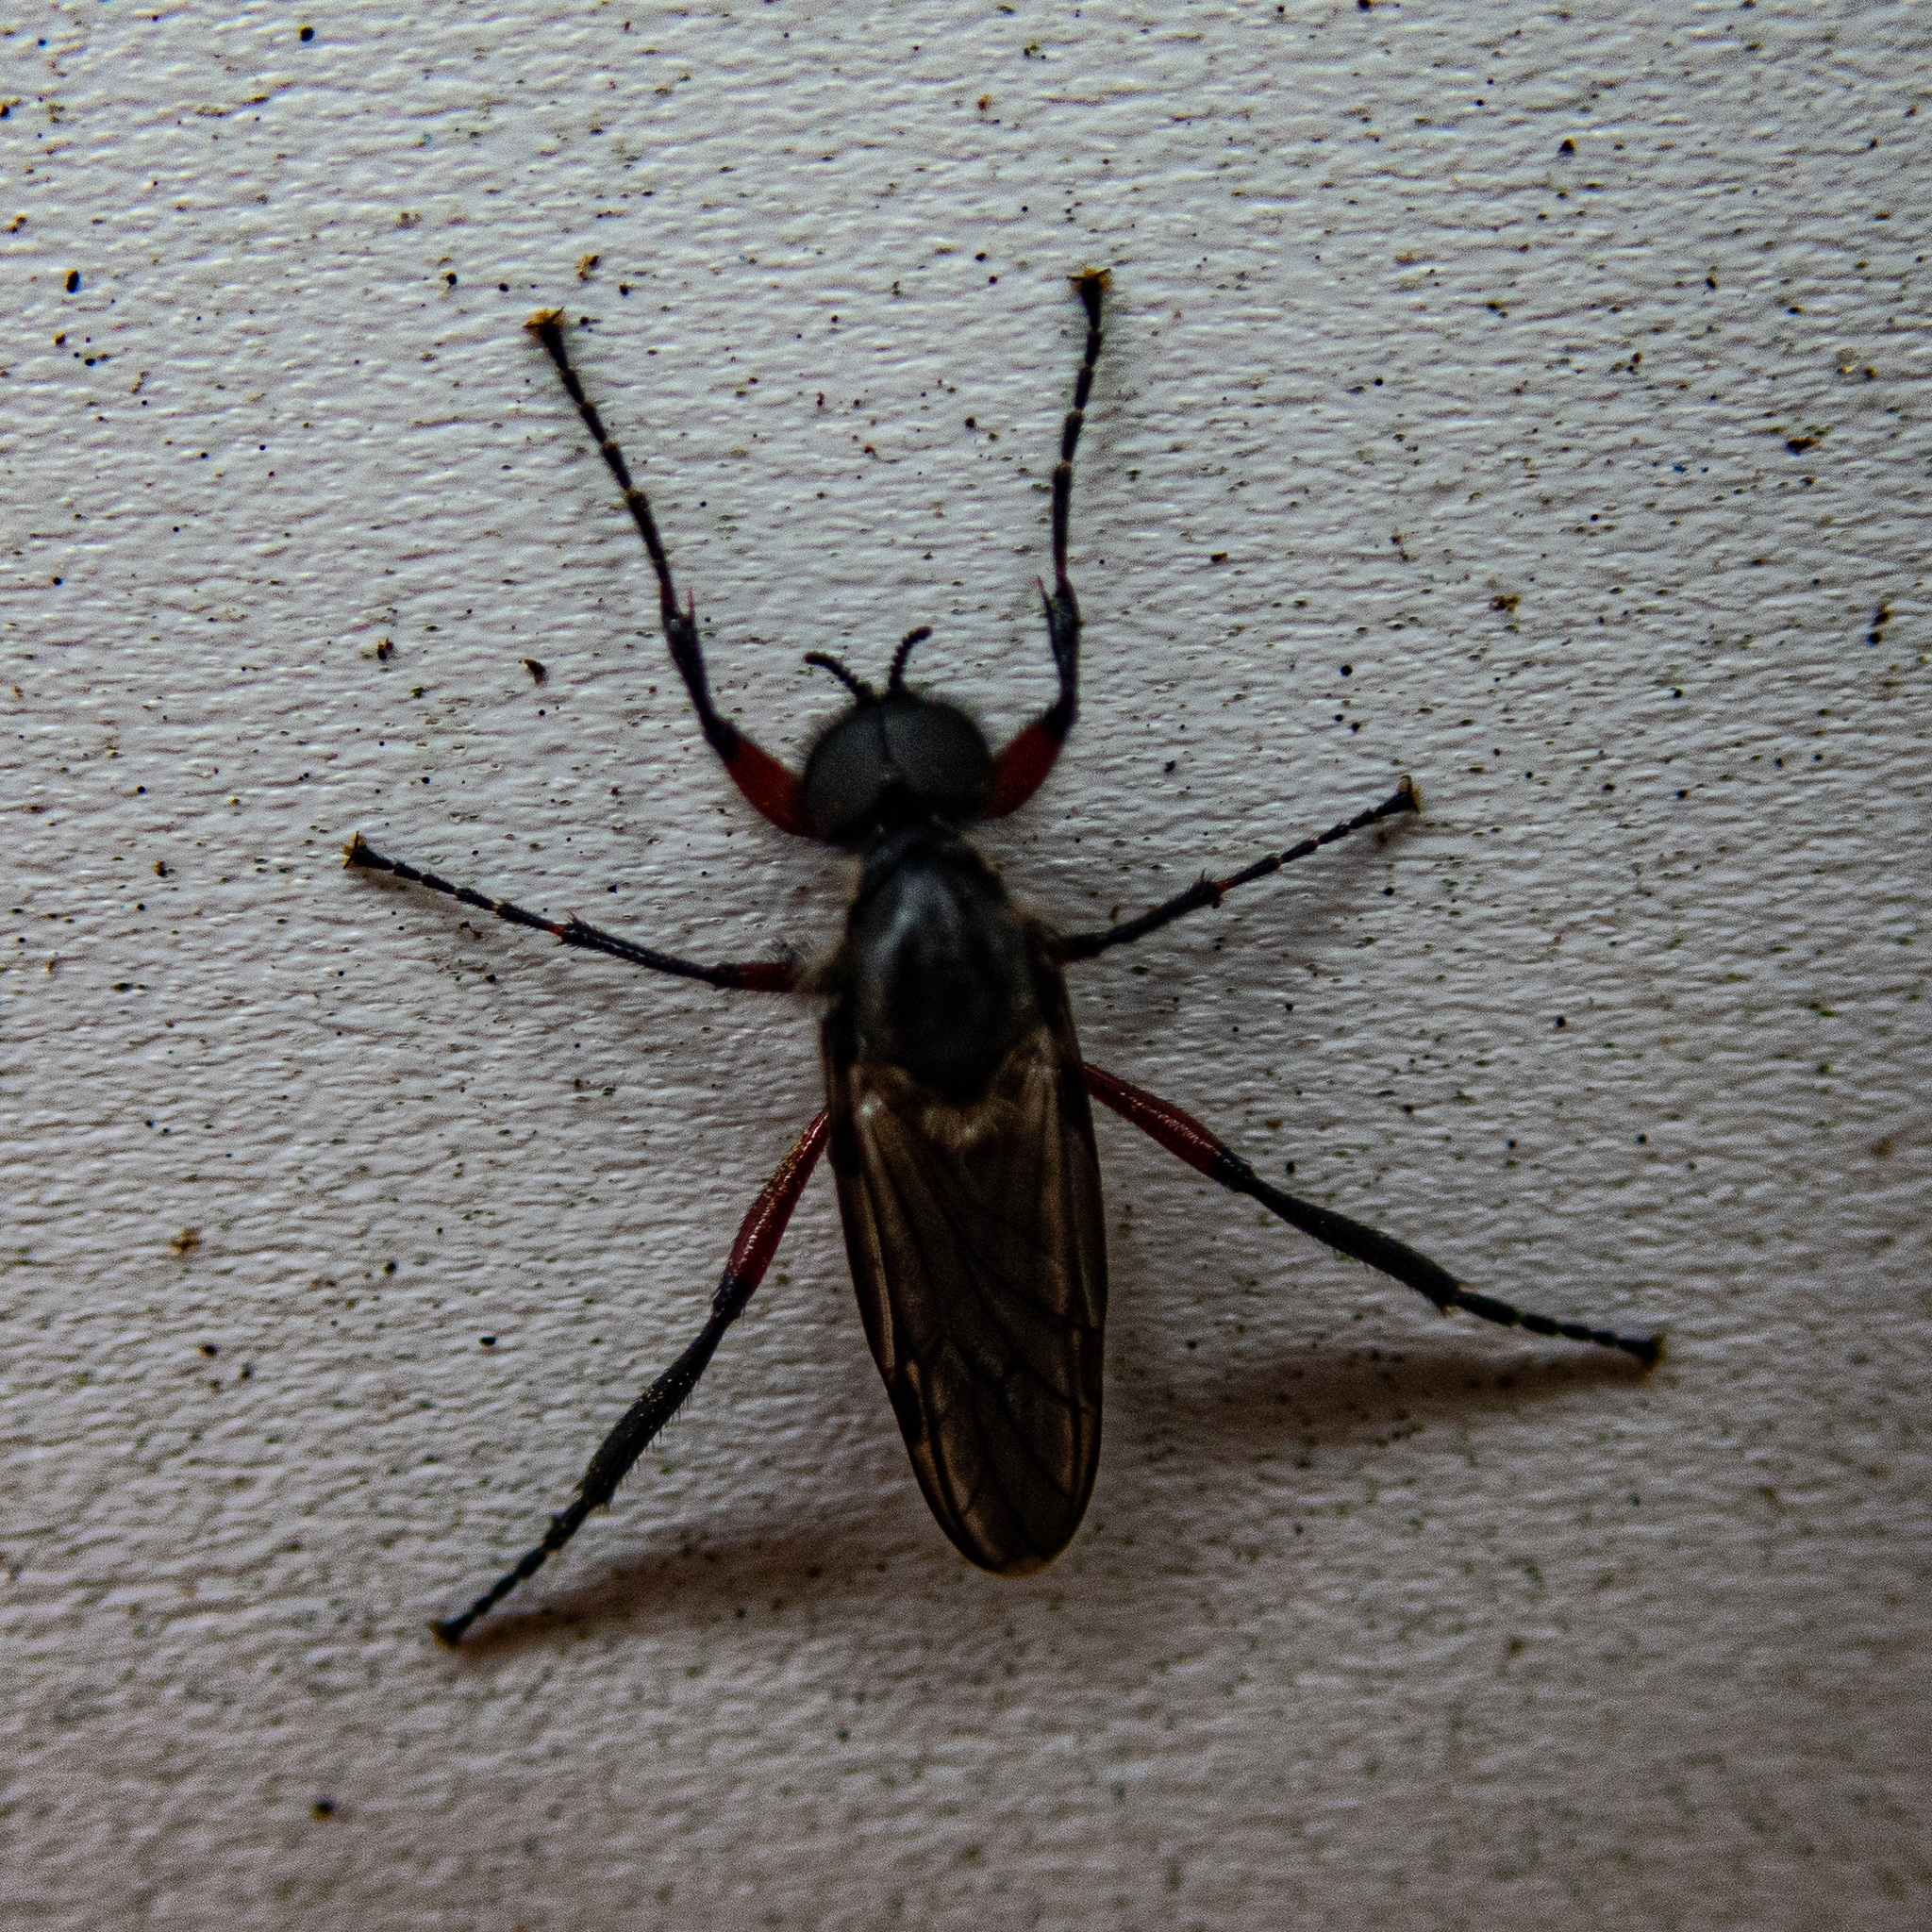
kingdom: Animalia
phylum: Arthropoda
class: Insecta
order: Diptera
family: Bibionidae
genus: Bibio
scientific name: Bibio femoratus
